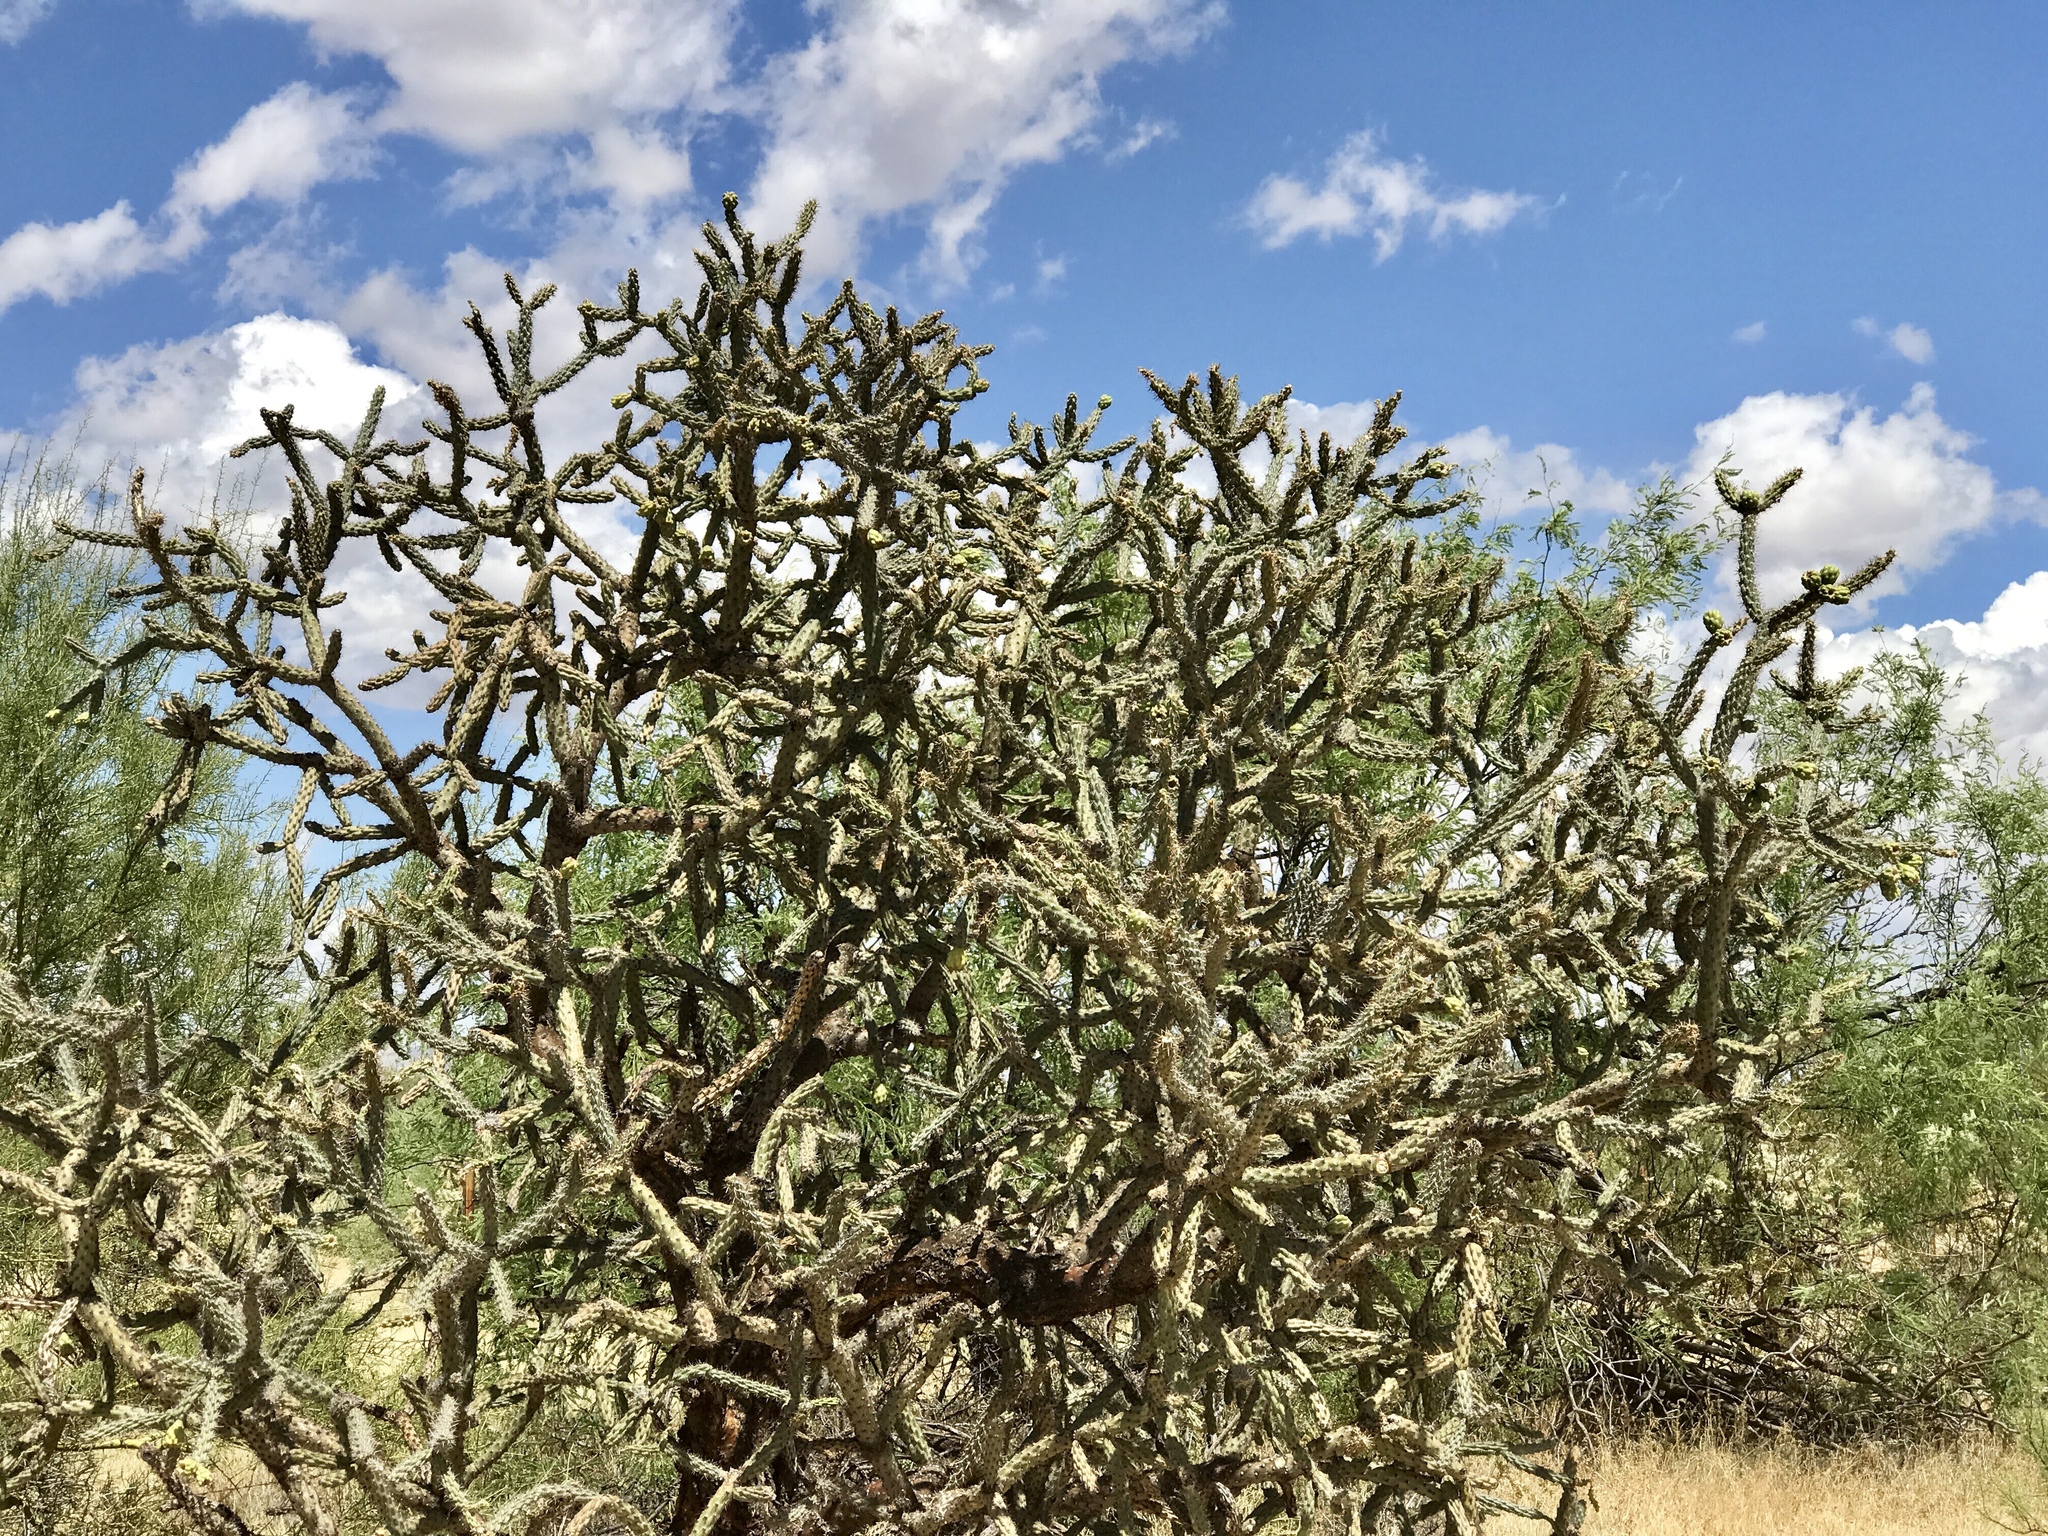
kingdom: Plantae
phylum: Tracheophyta
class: Magnoliopsida
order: Caryophyllales
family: Cactaceae
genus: Cylindropuntia
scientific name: Cylindropuntia imbricata
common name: Candelabrum cactus
